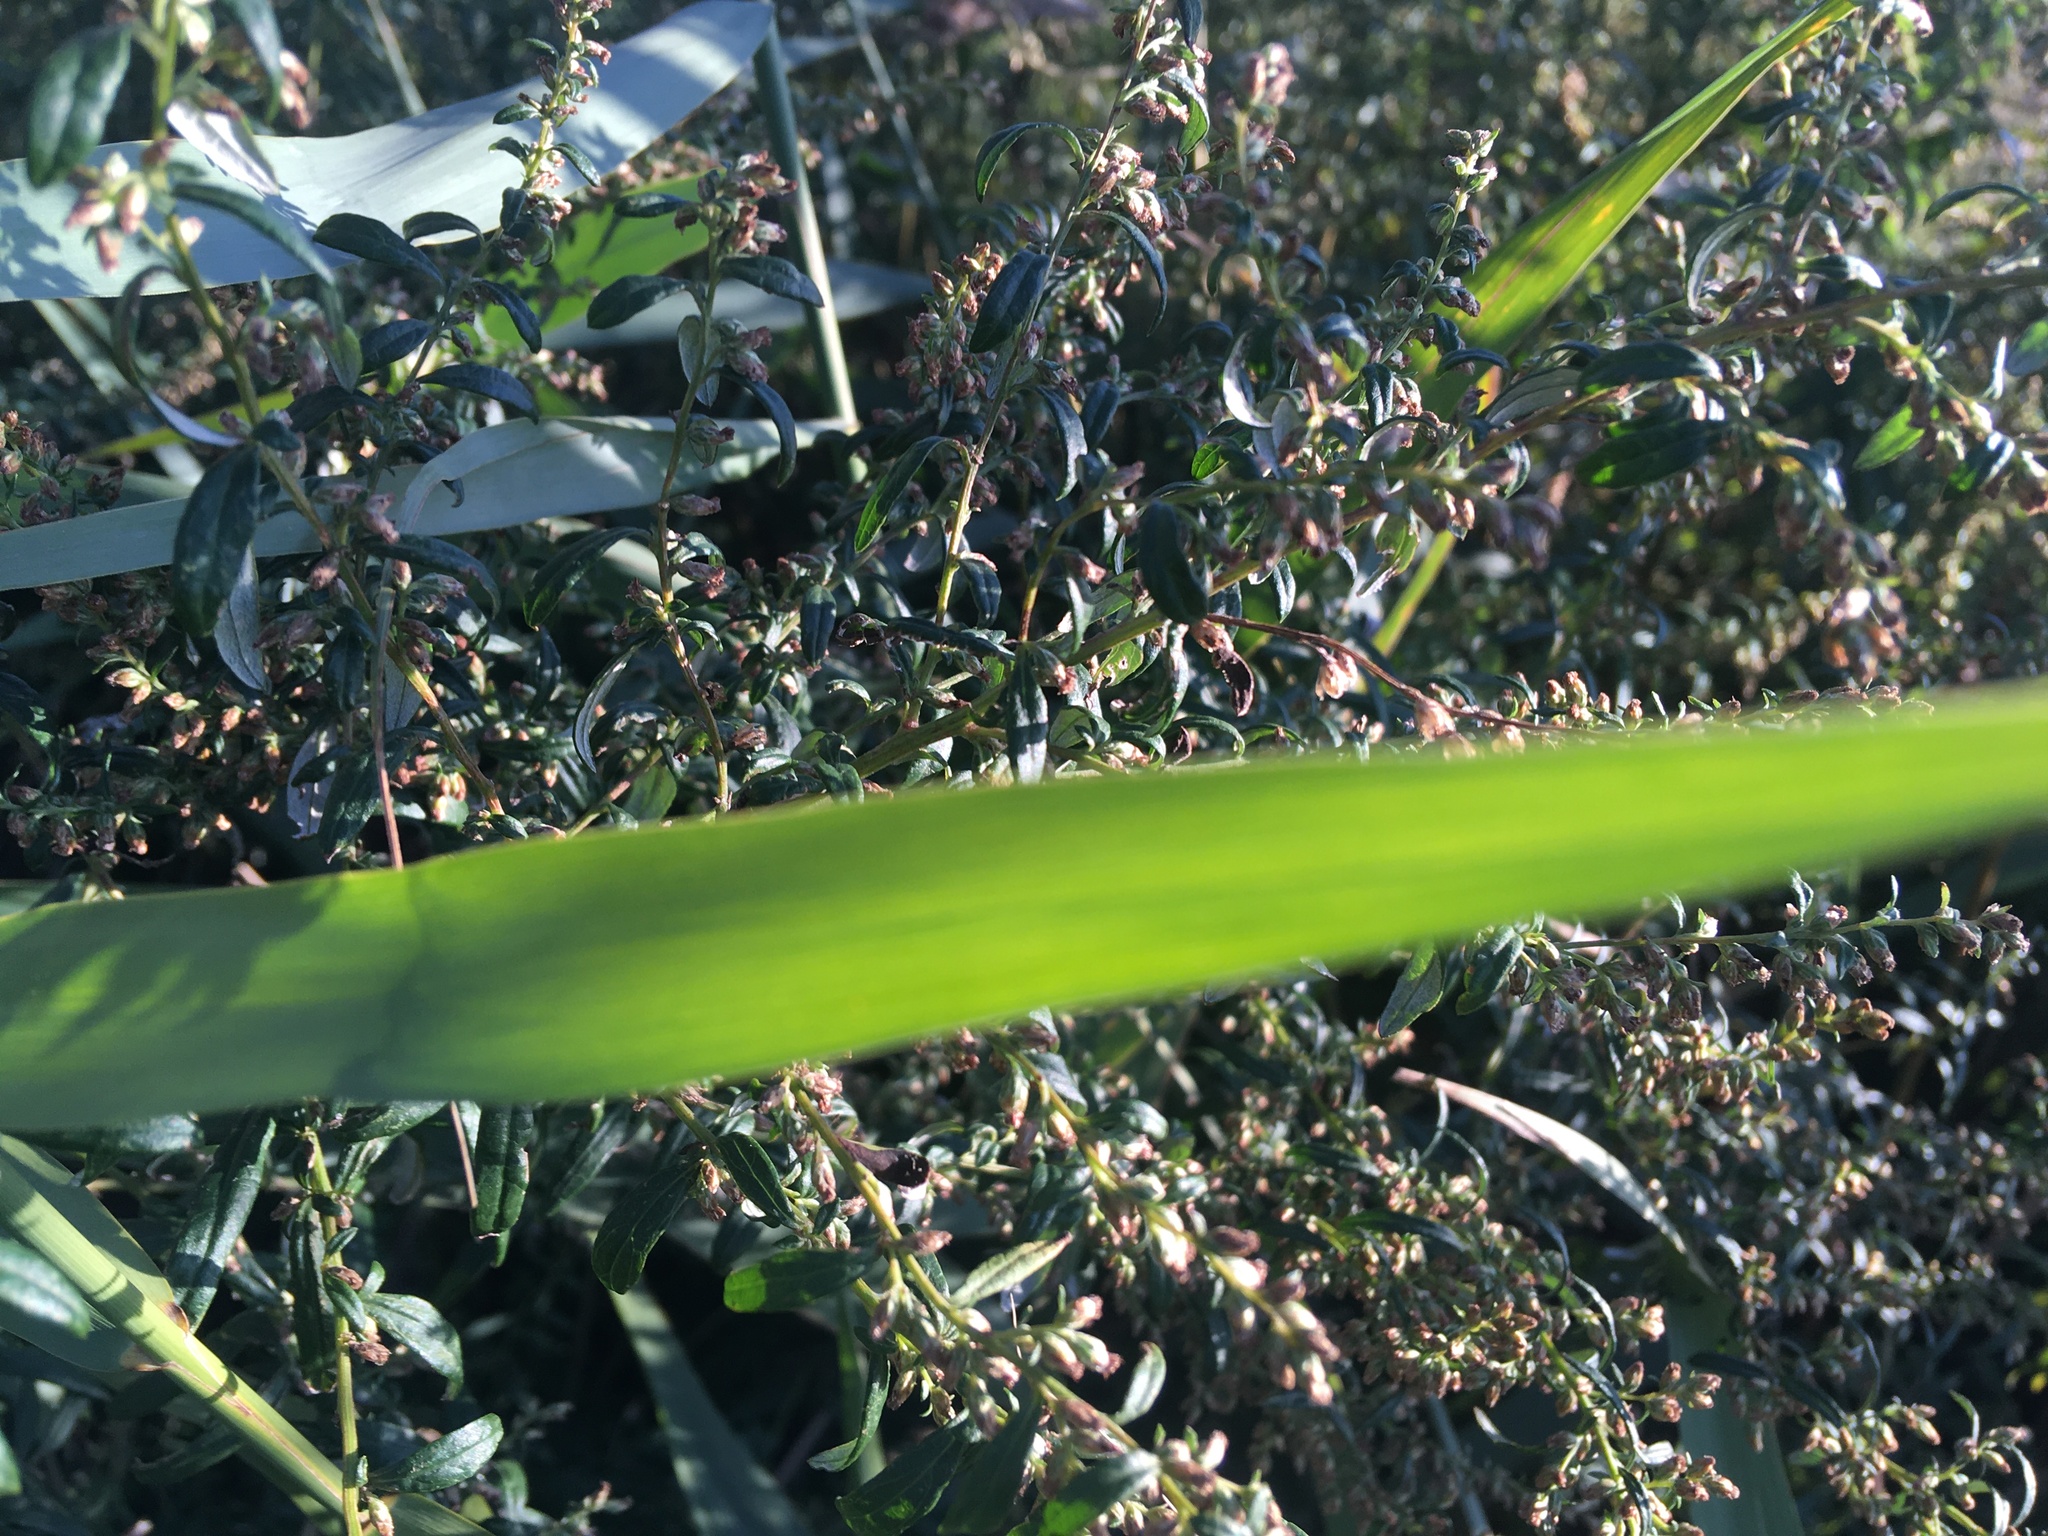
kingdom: Plantae
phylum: Tracheophyta
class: Magnoliopsida
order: Asterales
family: Asteraceae
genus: Artemisia
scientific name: Artemisia vulgaris
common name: Mugwort
